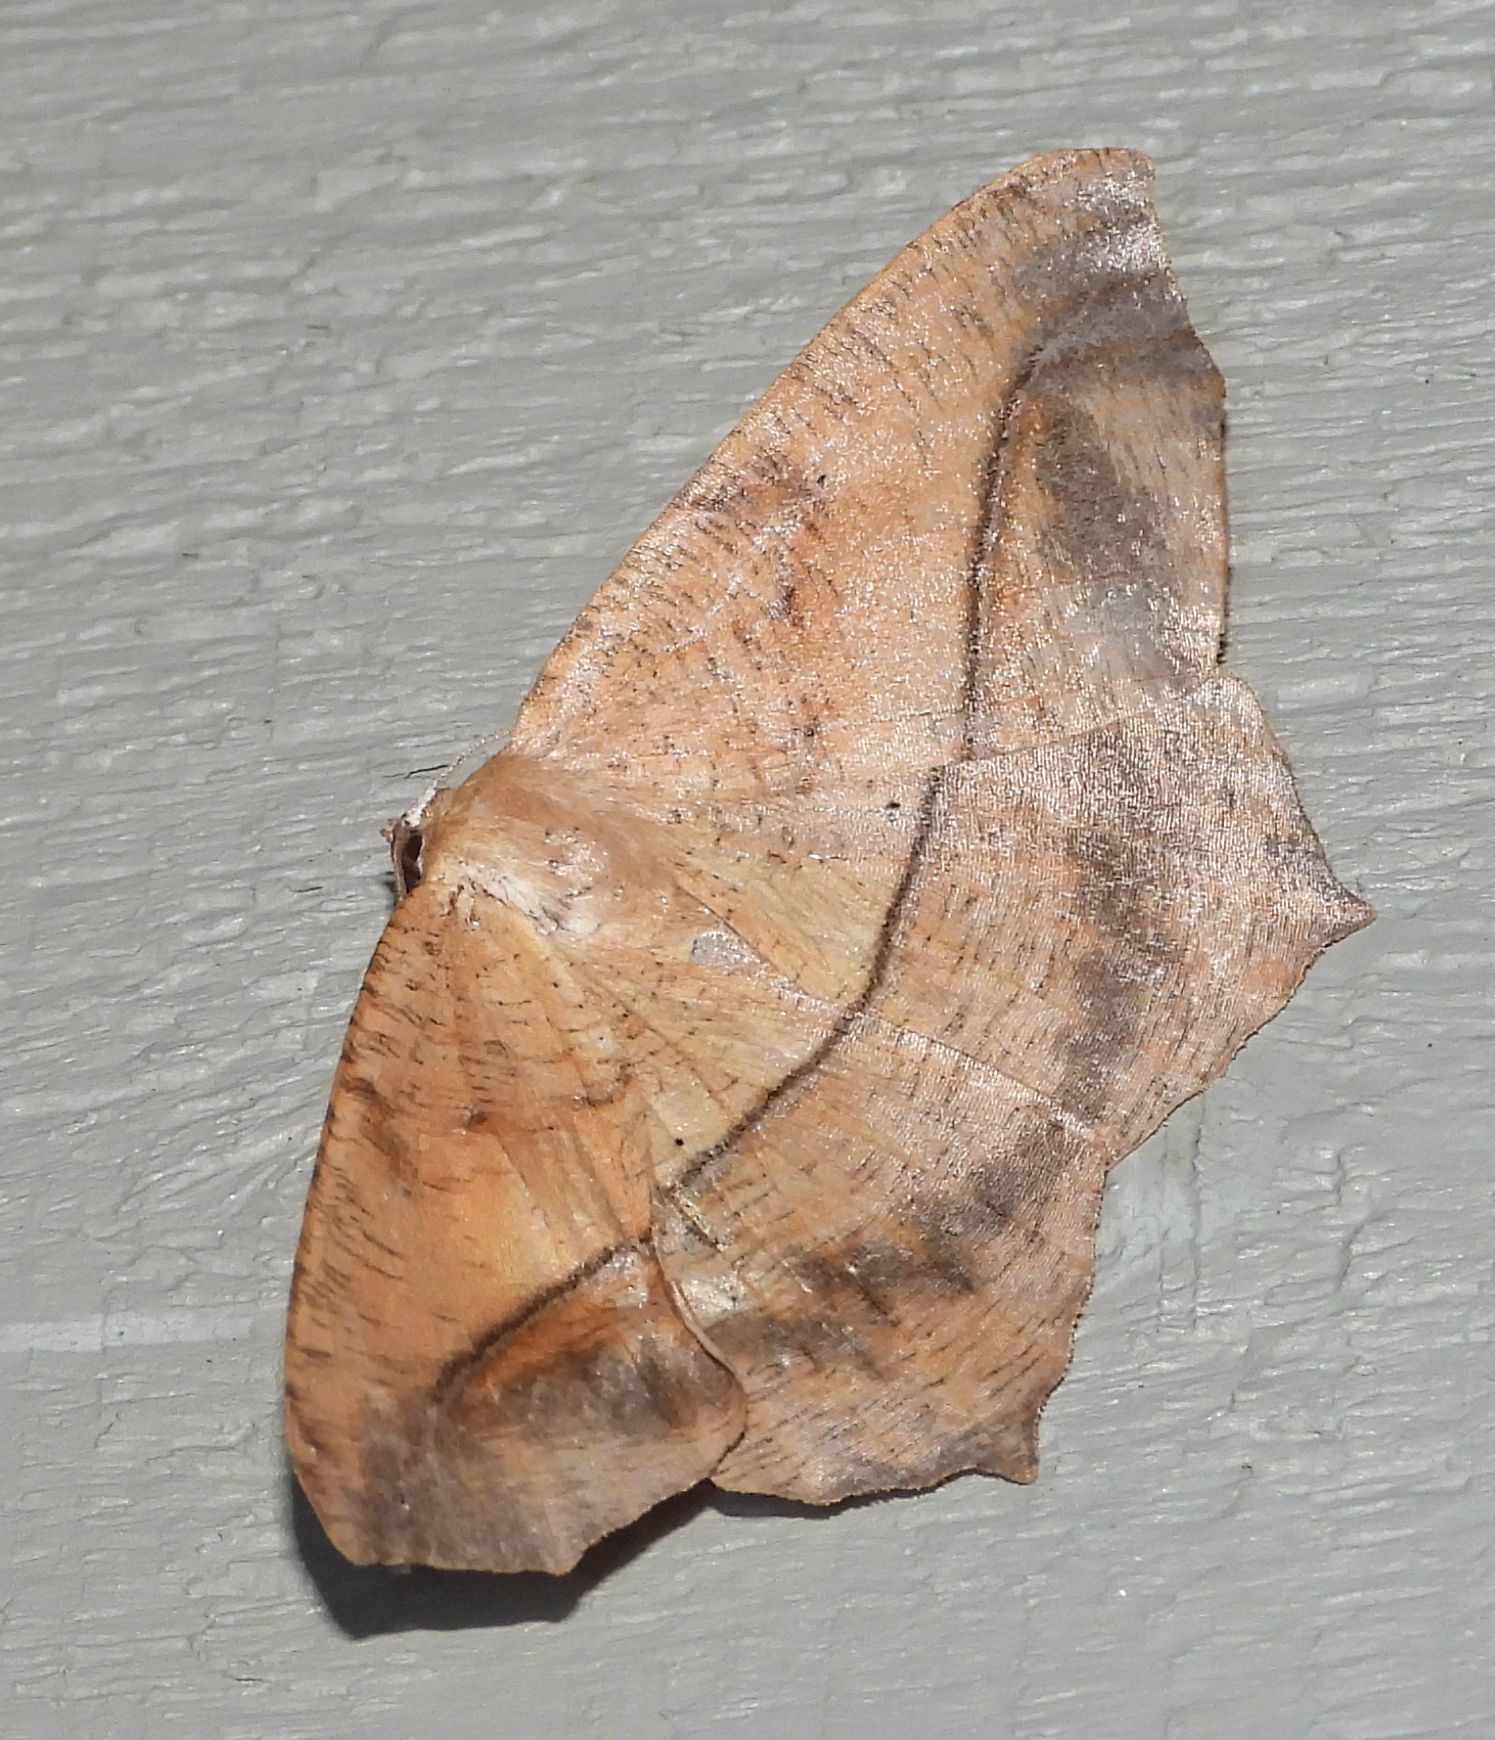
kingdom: Animalia
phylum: Arthropoda
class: Insecta
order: Lepidoptera
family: Geometridae
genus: Prochoerodes
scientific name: Prochoerodes lineola
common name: Large maple spanworm
